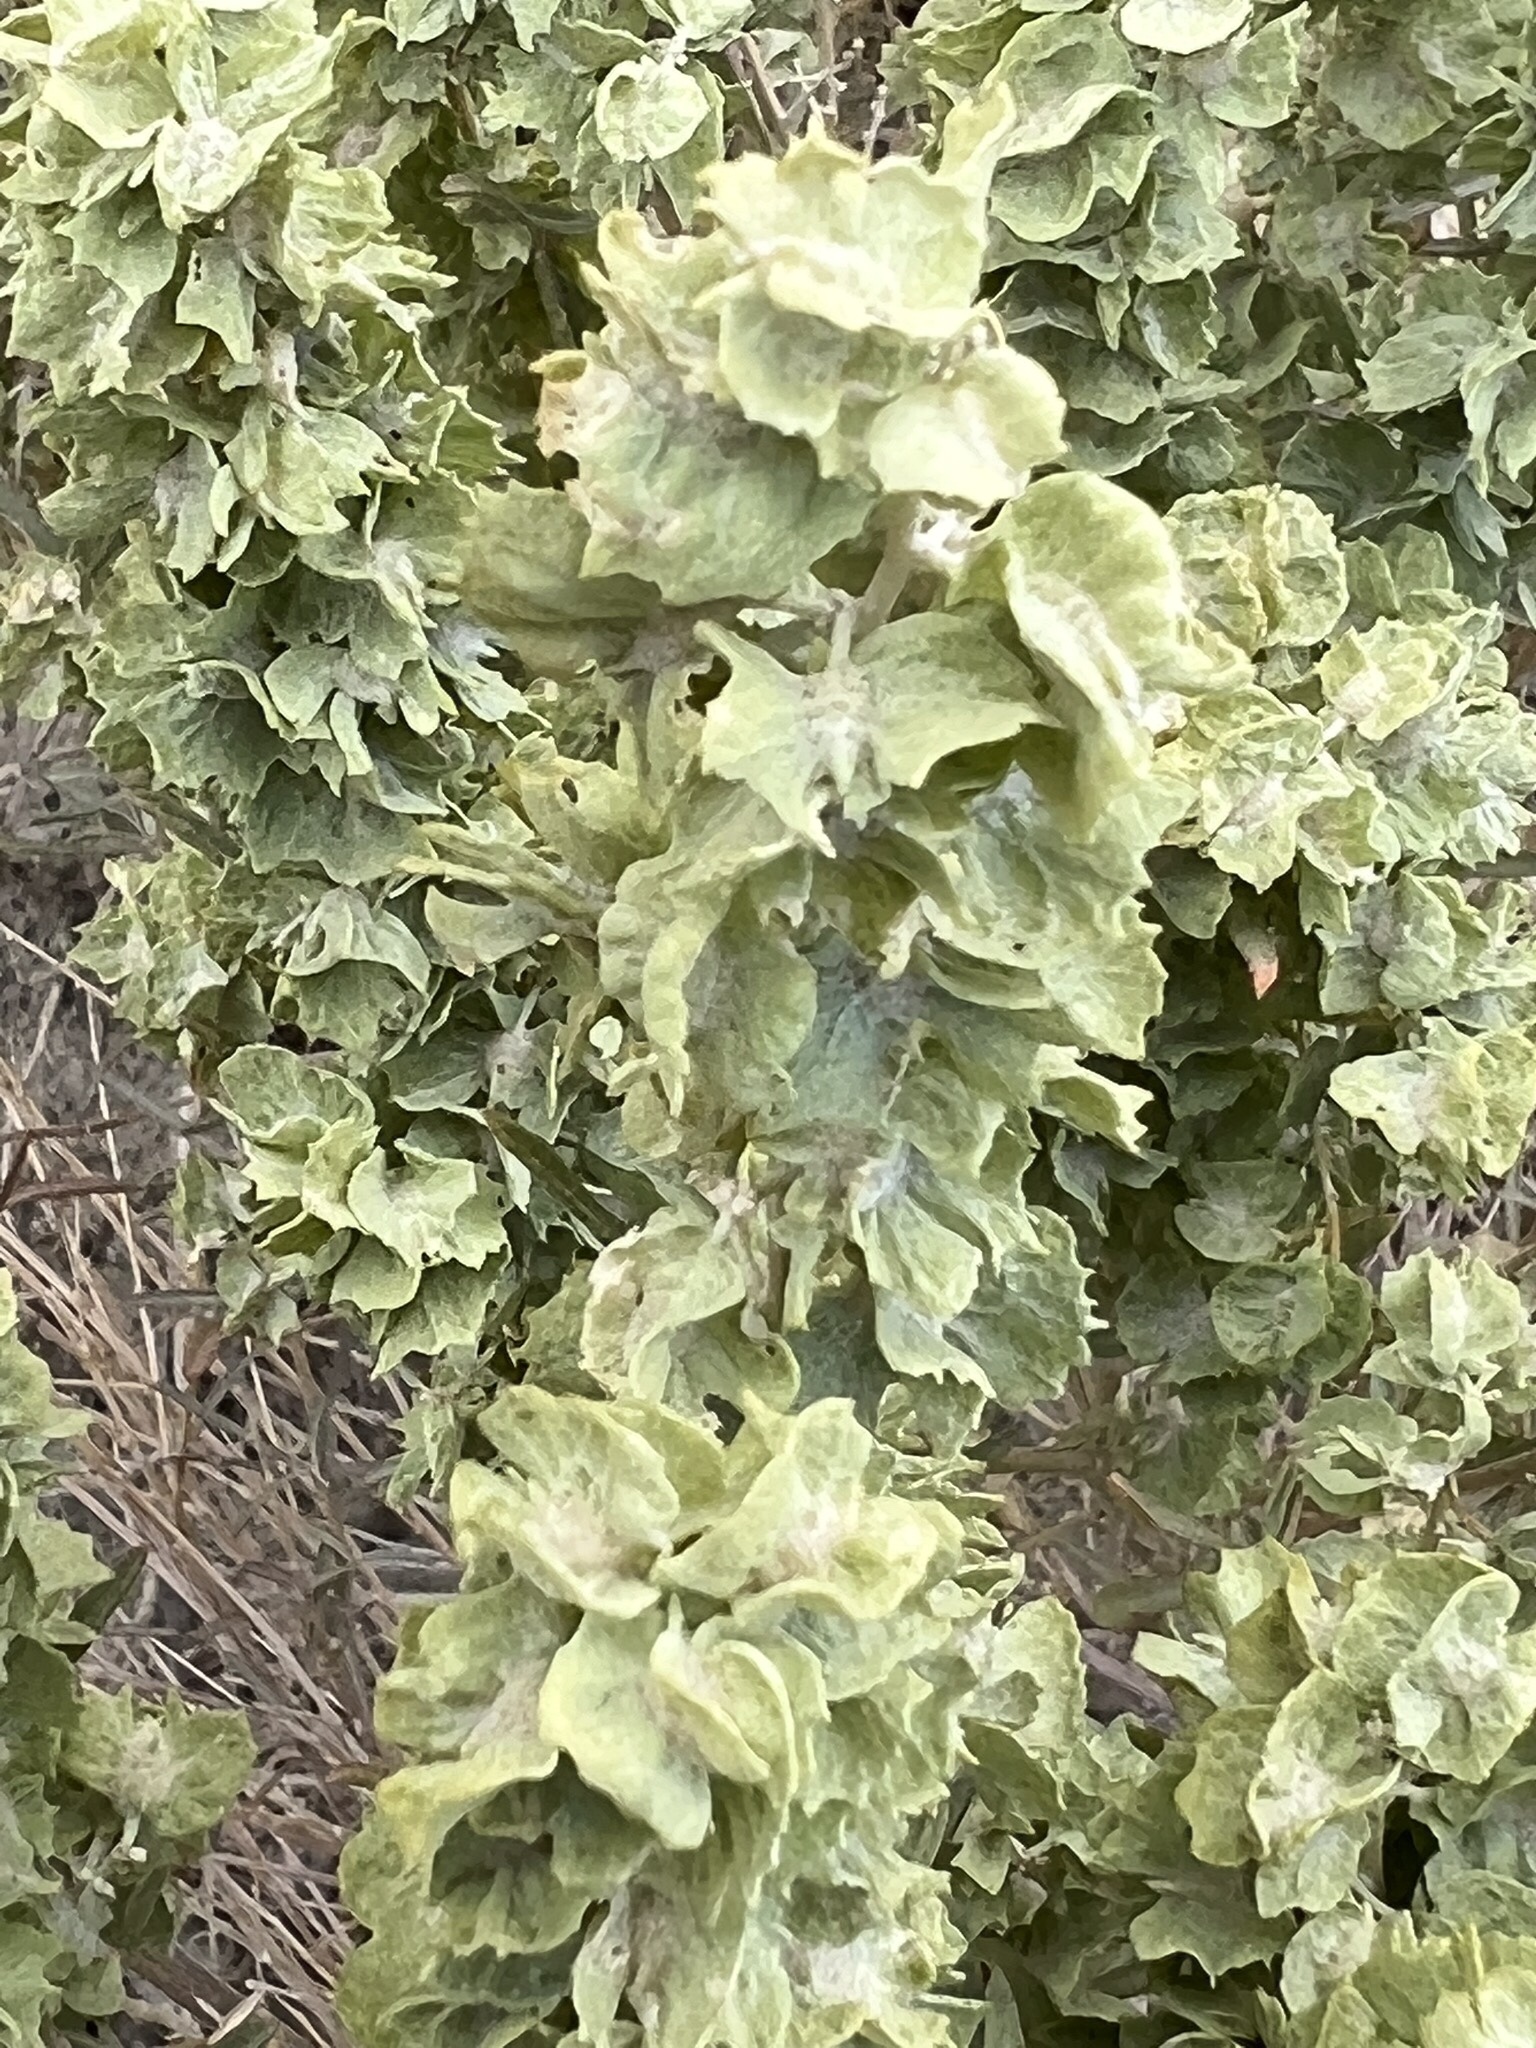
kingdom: Plantae
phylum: Tracheophyta
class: Magnoliopsida
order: Caryophyllales
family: Amaranthaceae
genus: Atriplex
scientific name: Atriplex canescens
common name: Four-wing saltbush
